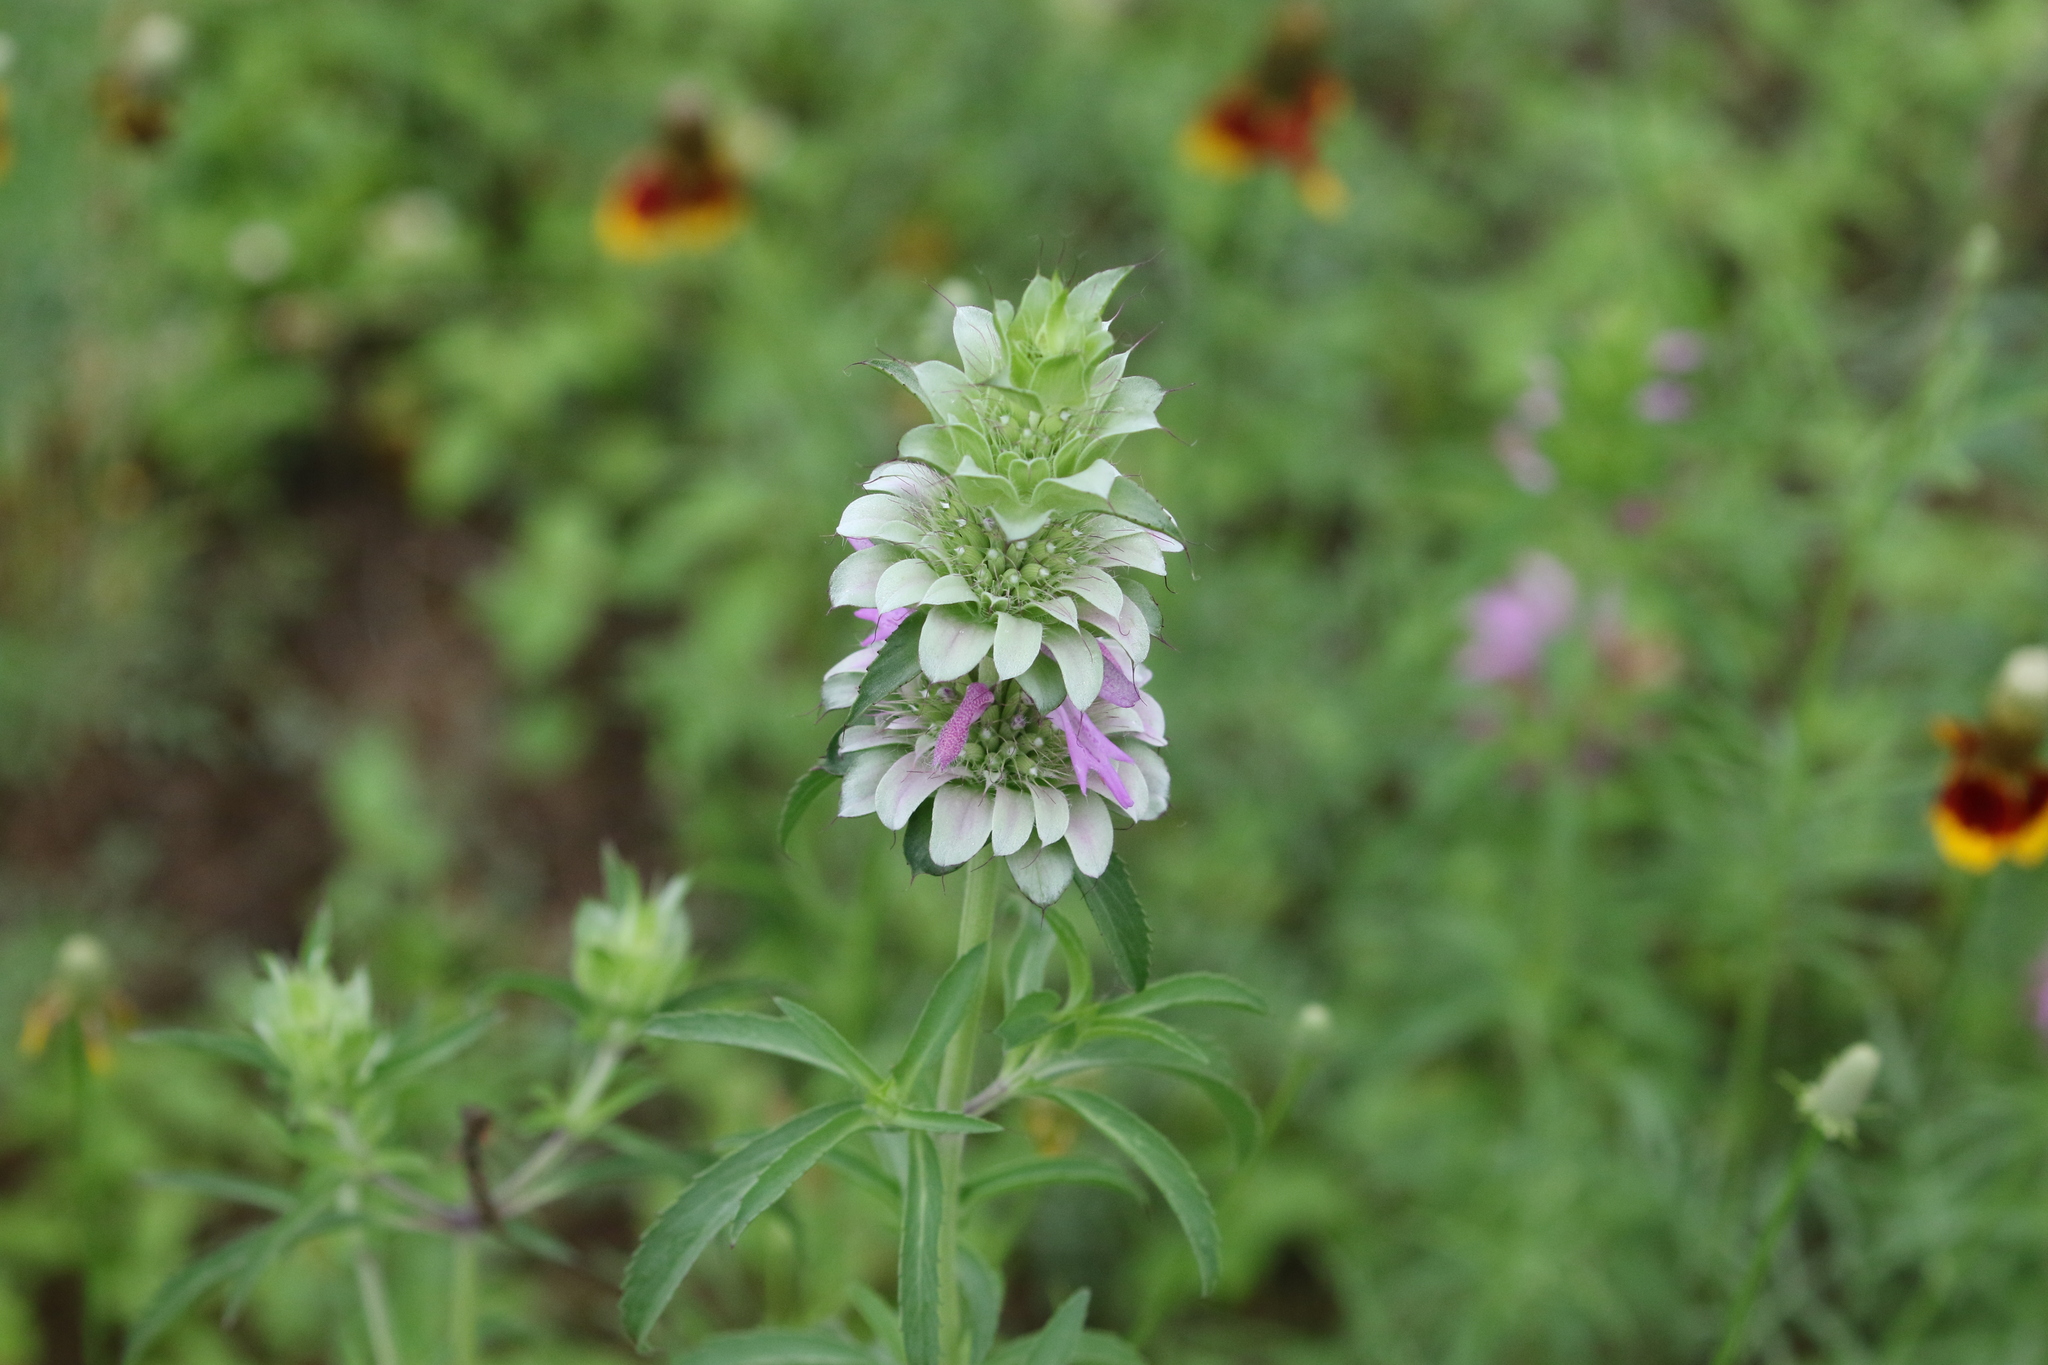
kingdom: Plantae
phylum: Tracheophyta
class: Magnoliopsida
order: Lamiales
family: Lamiaceae
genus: Monarda
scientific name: Monarda citriodora
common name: Lemon beebalm
